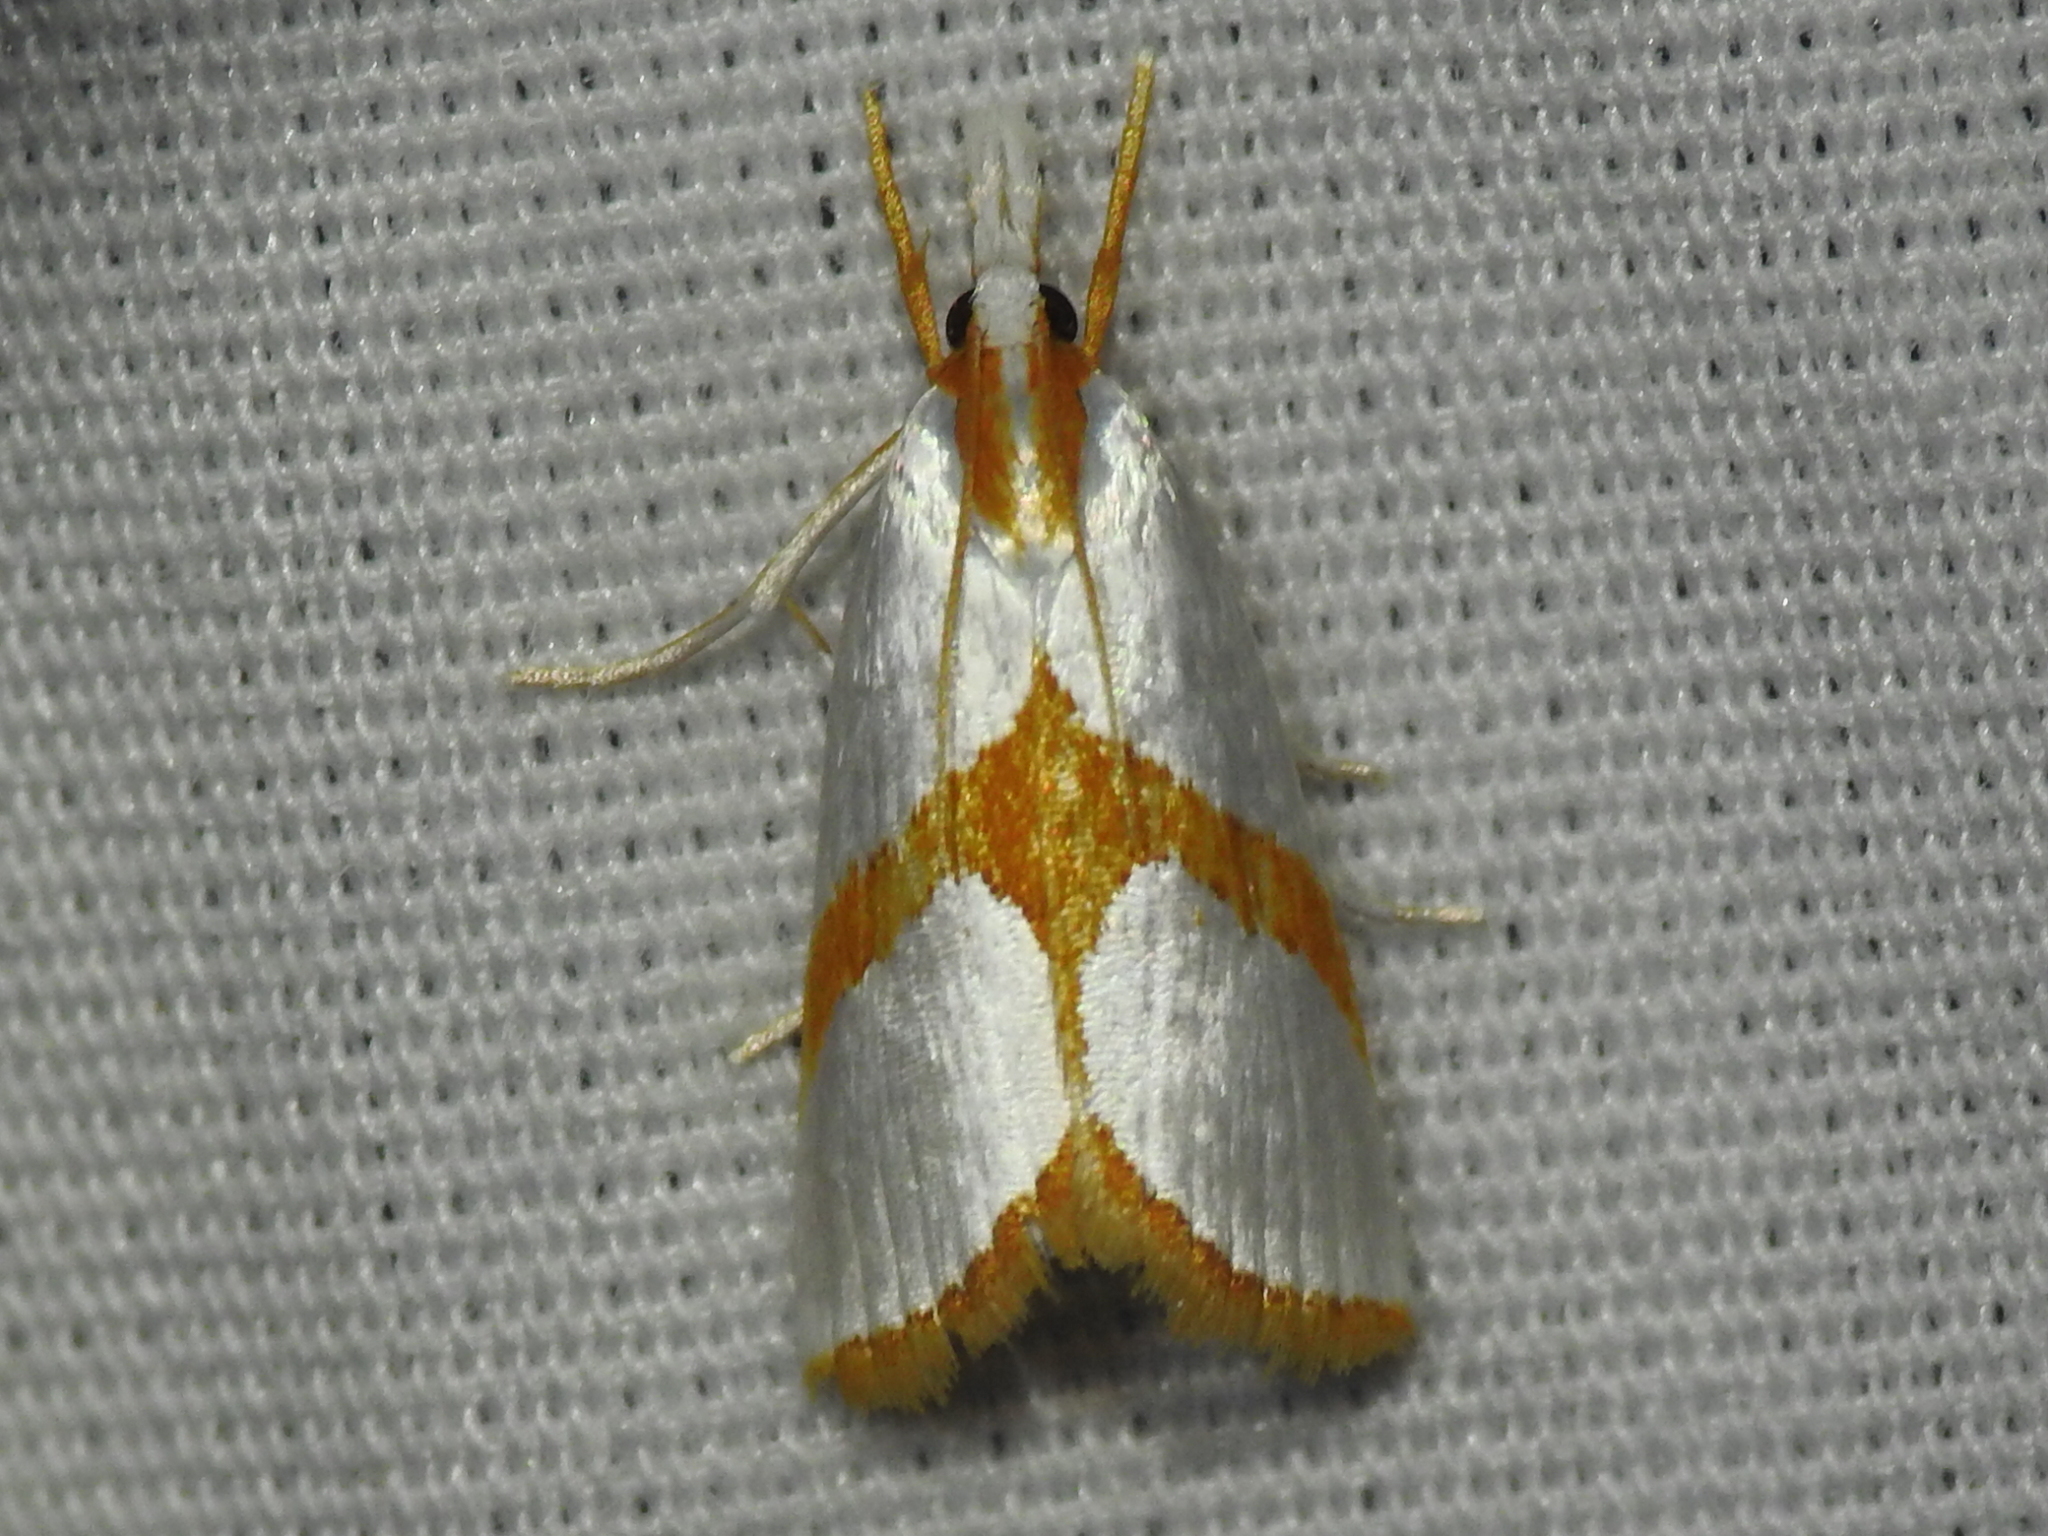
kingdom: Animalia
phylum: Arthropoda
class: Insecta
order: Lepidoptera
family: Crambidae
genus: Argyria
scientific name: Argyria auratella
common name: Curve-lined argyria moth
